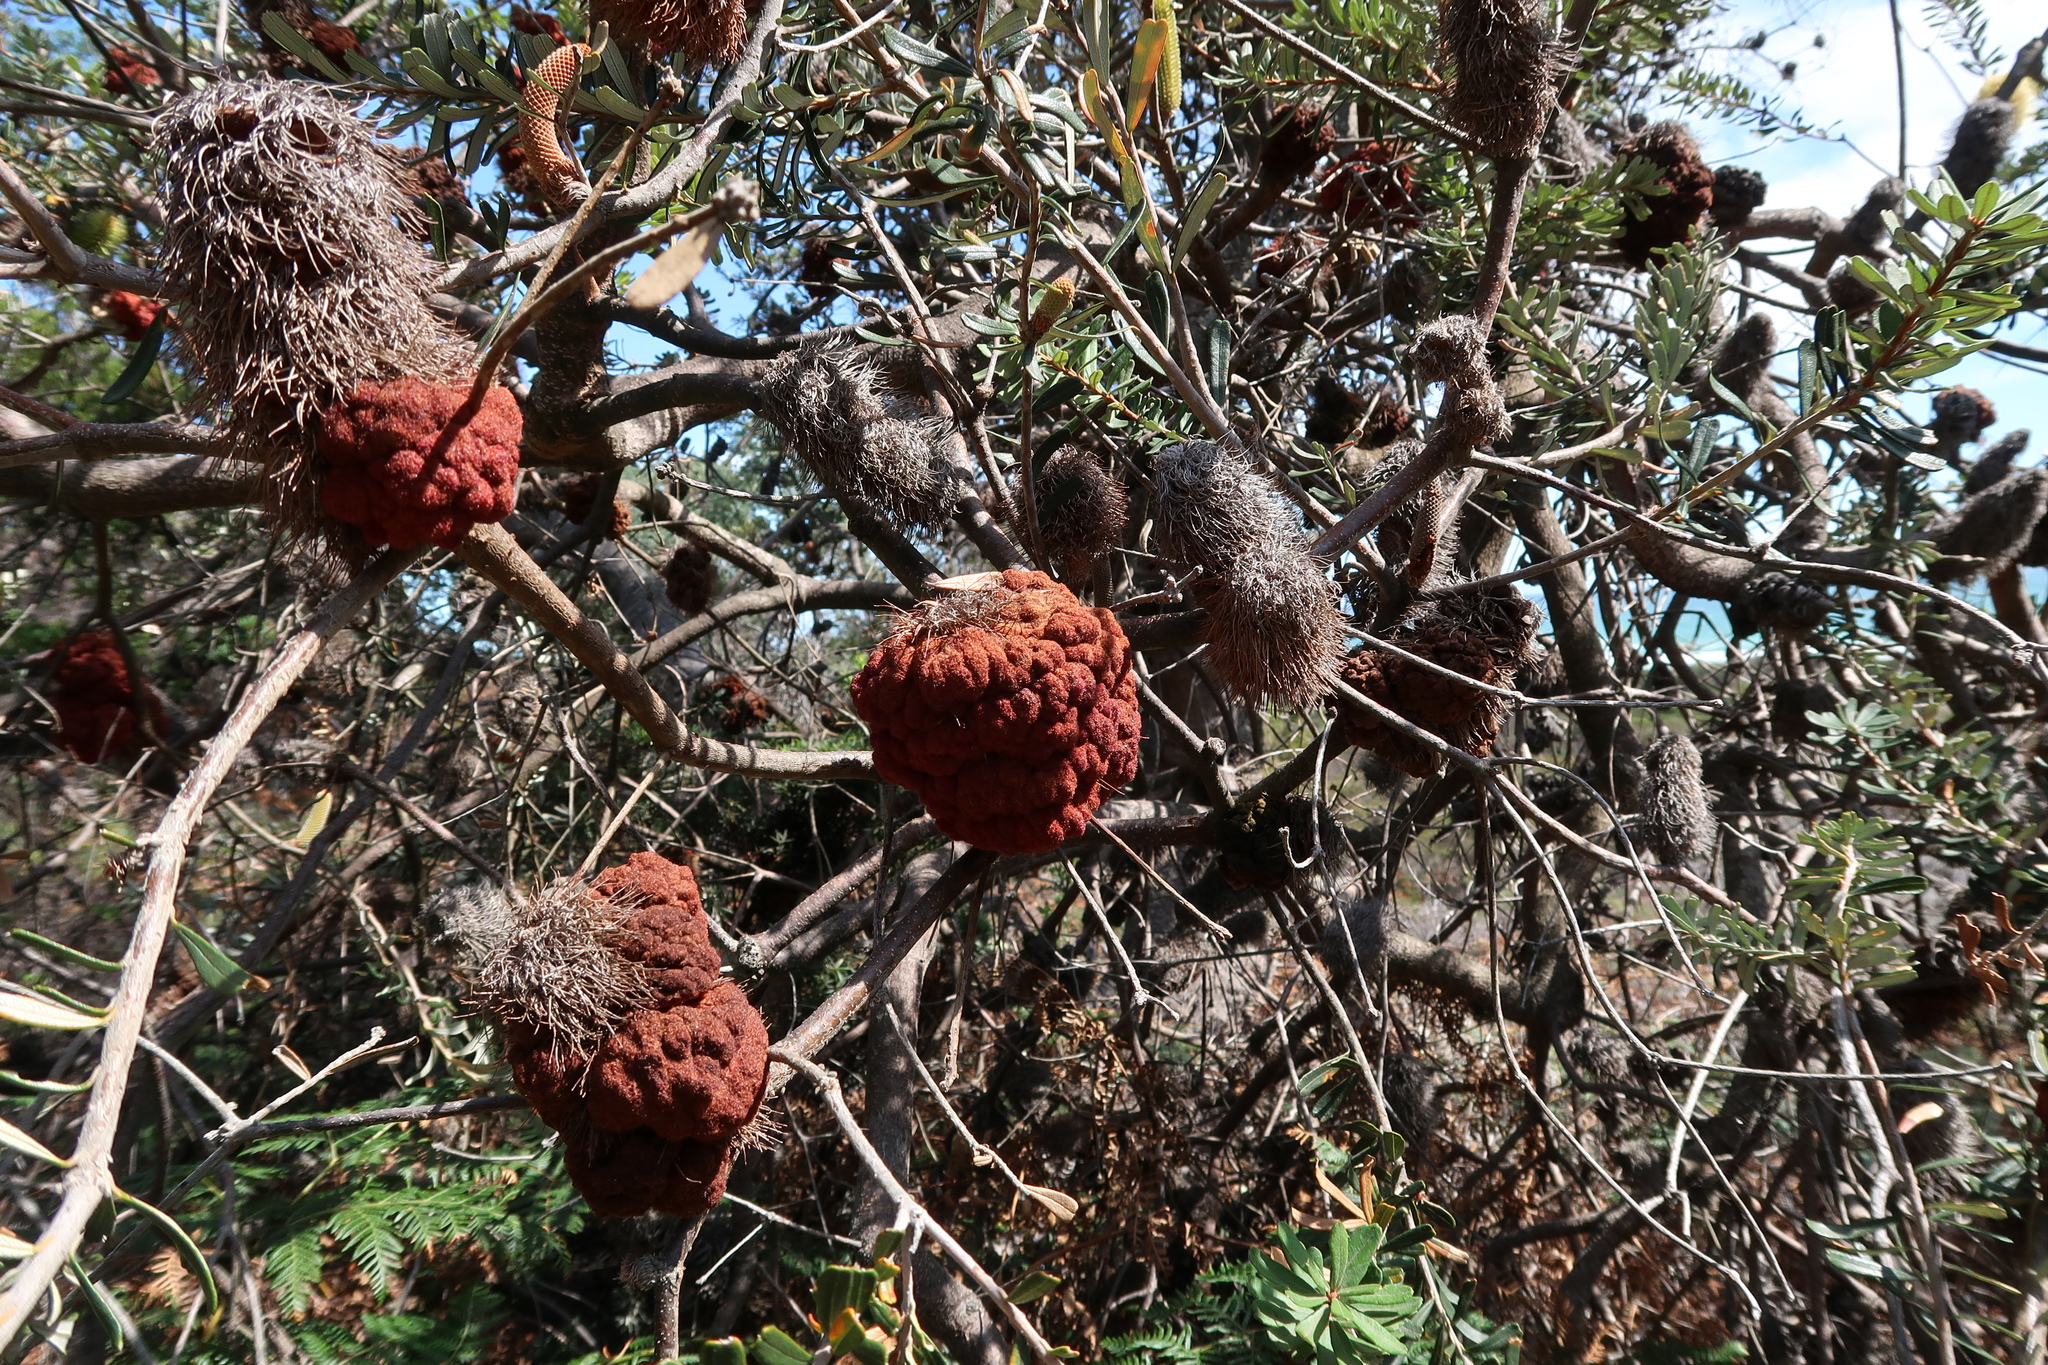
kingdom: Plantae
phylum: Tracheophyta
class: Magnoliopsida
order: Proteales
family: Proteaceae
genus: Banksia
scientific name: Banksia marginata
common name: Silver banksia
